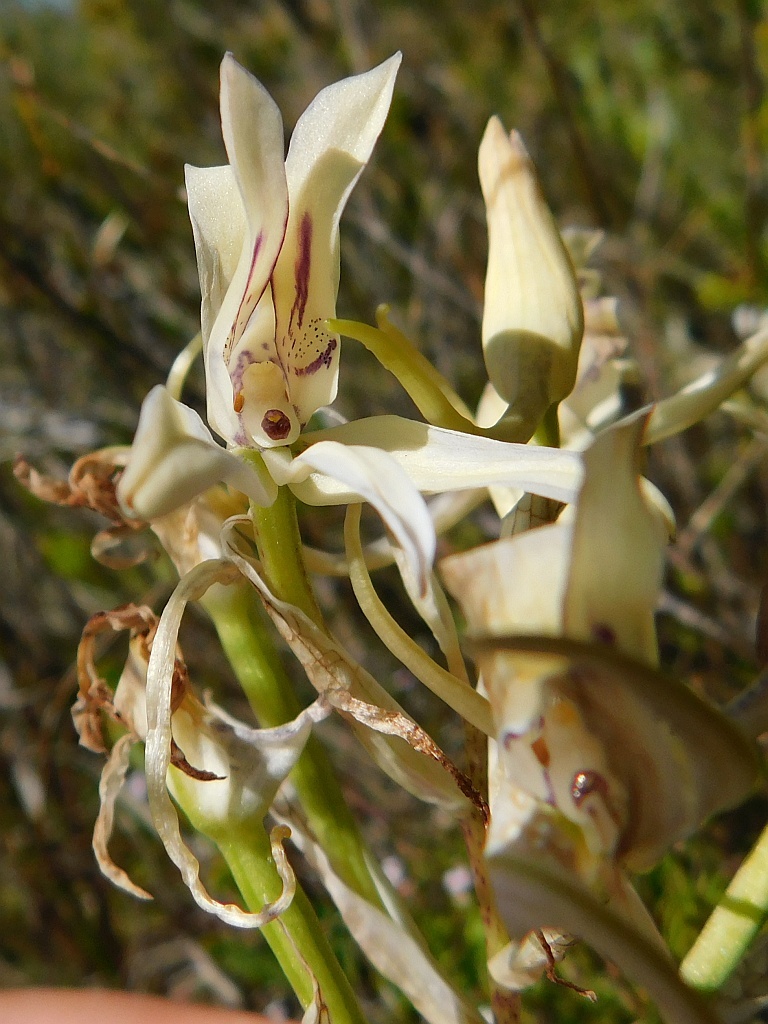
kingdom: Plantae
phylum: Tracheophyta
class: Liliopsida
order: Asparagales
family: Orchidaceae
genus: Disa
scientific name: Disa harveyana
